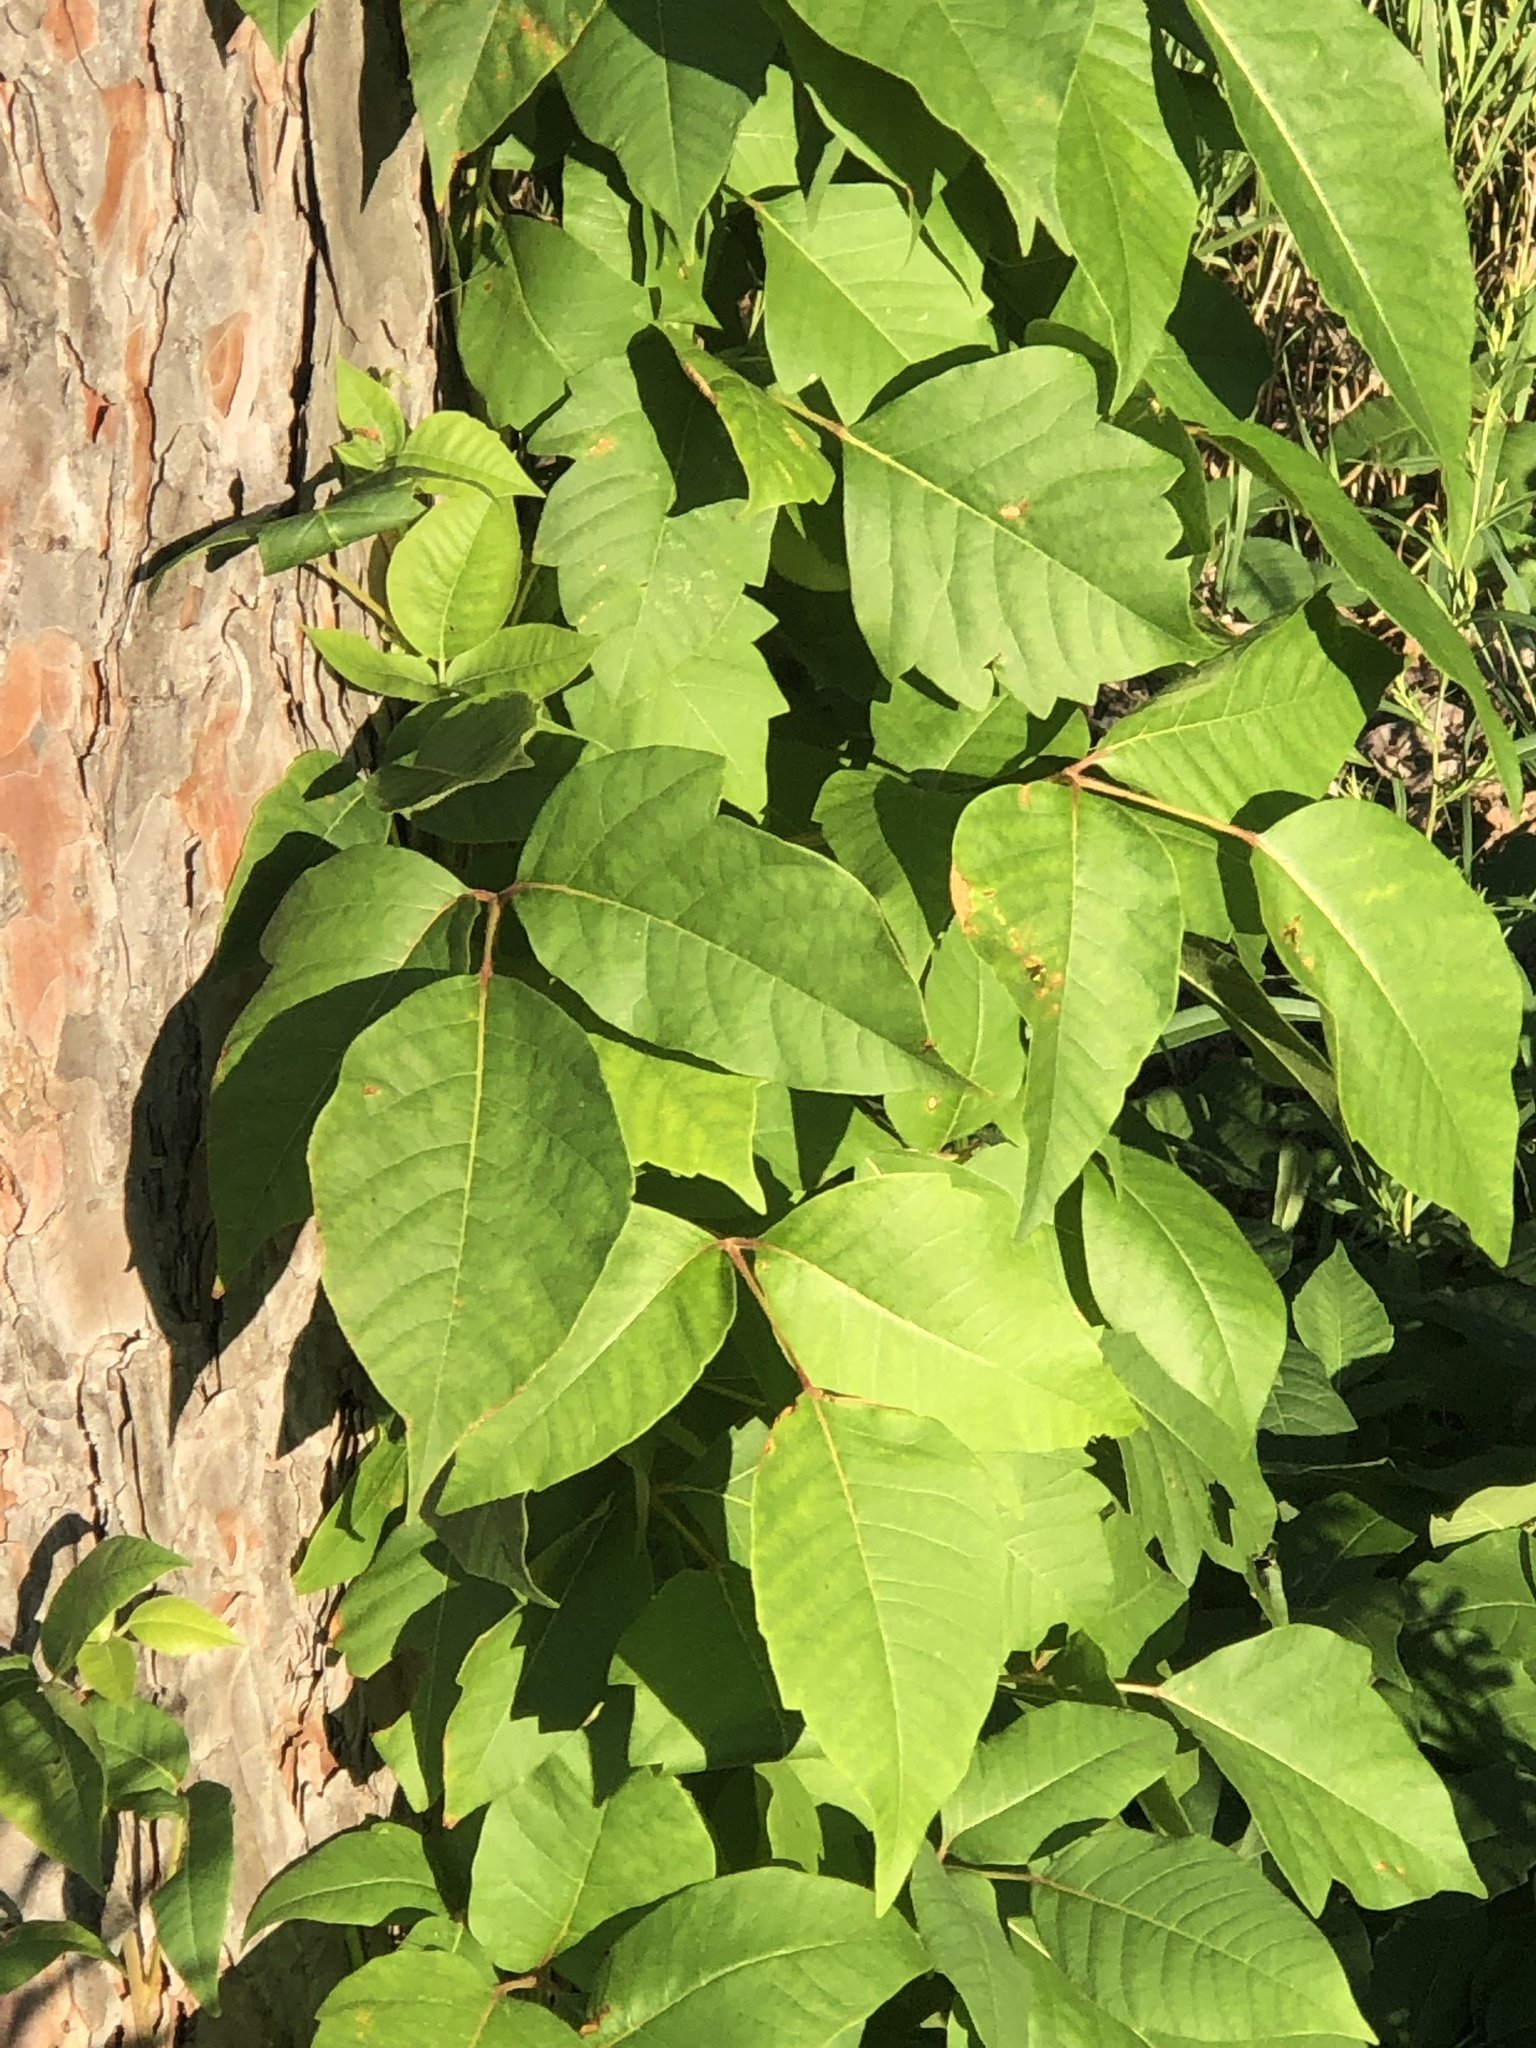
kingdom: Plantae
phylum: Tracheophyta
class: Magnoliopsida
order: Sapindales
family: Anacardiaceae
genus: Toxicodendron
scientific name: Toxicodendron radicans
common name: Poison ivy
